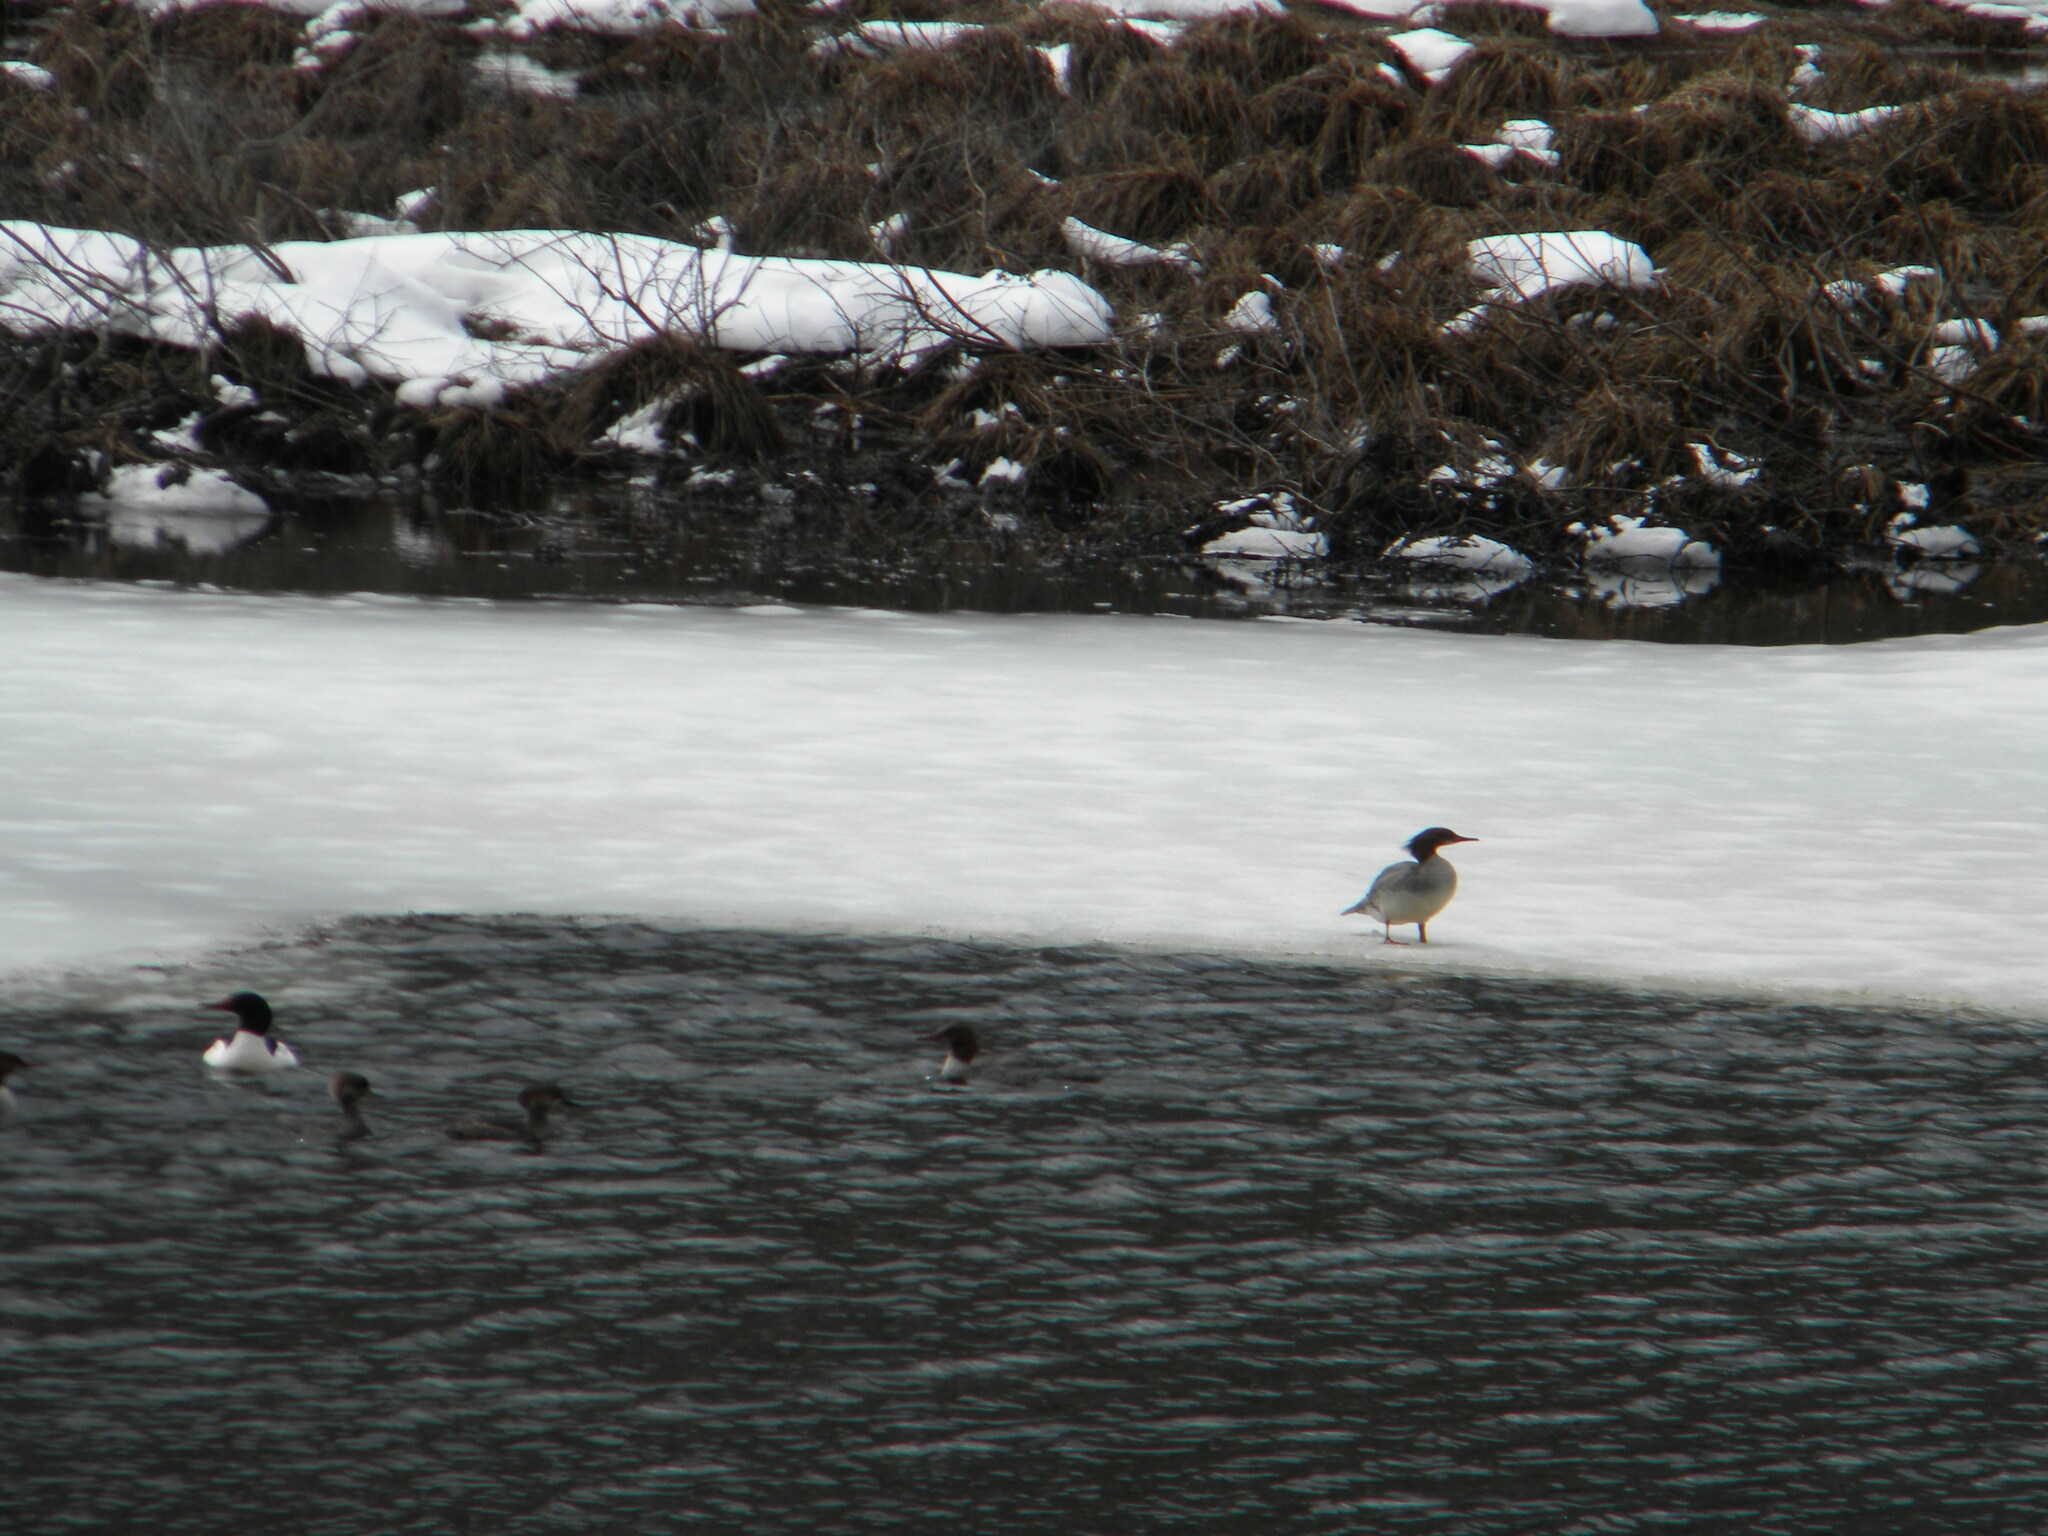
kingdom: Animalia
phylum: Chordata
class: Aves
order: Anseriformes
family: Anatidae
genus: Mergus
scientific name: Mergus merganser
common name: Common merganser
